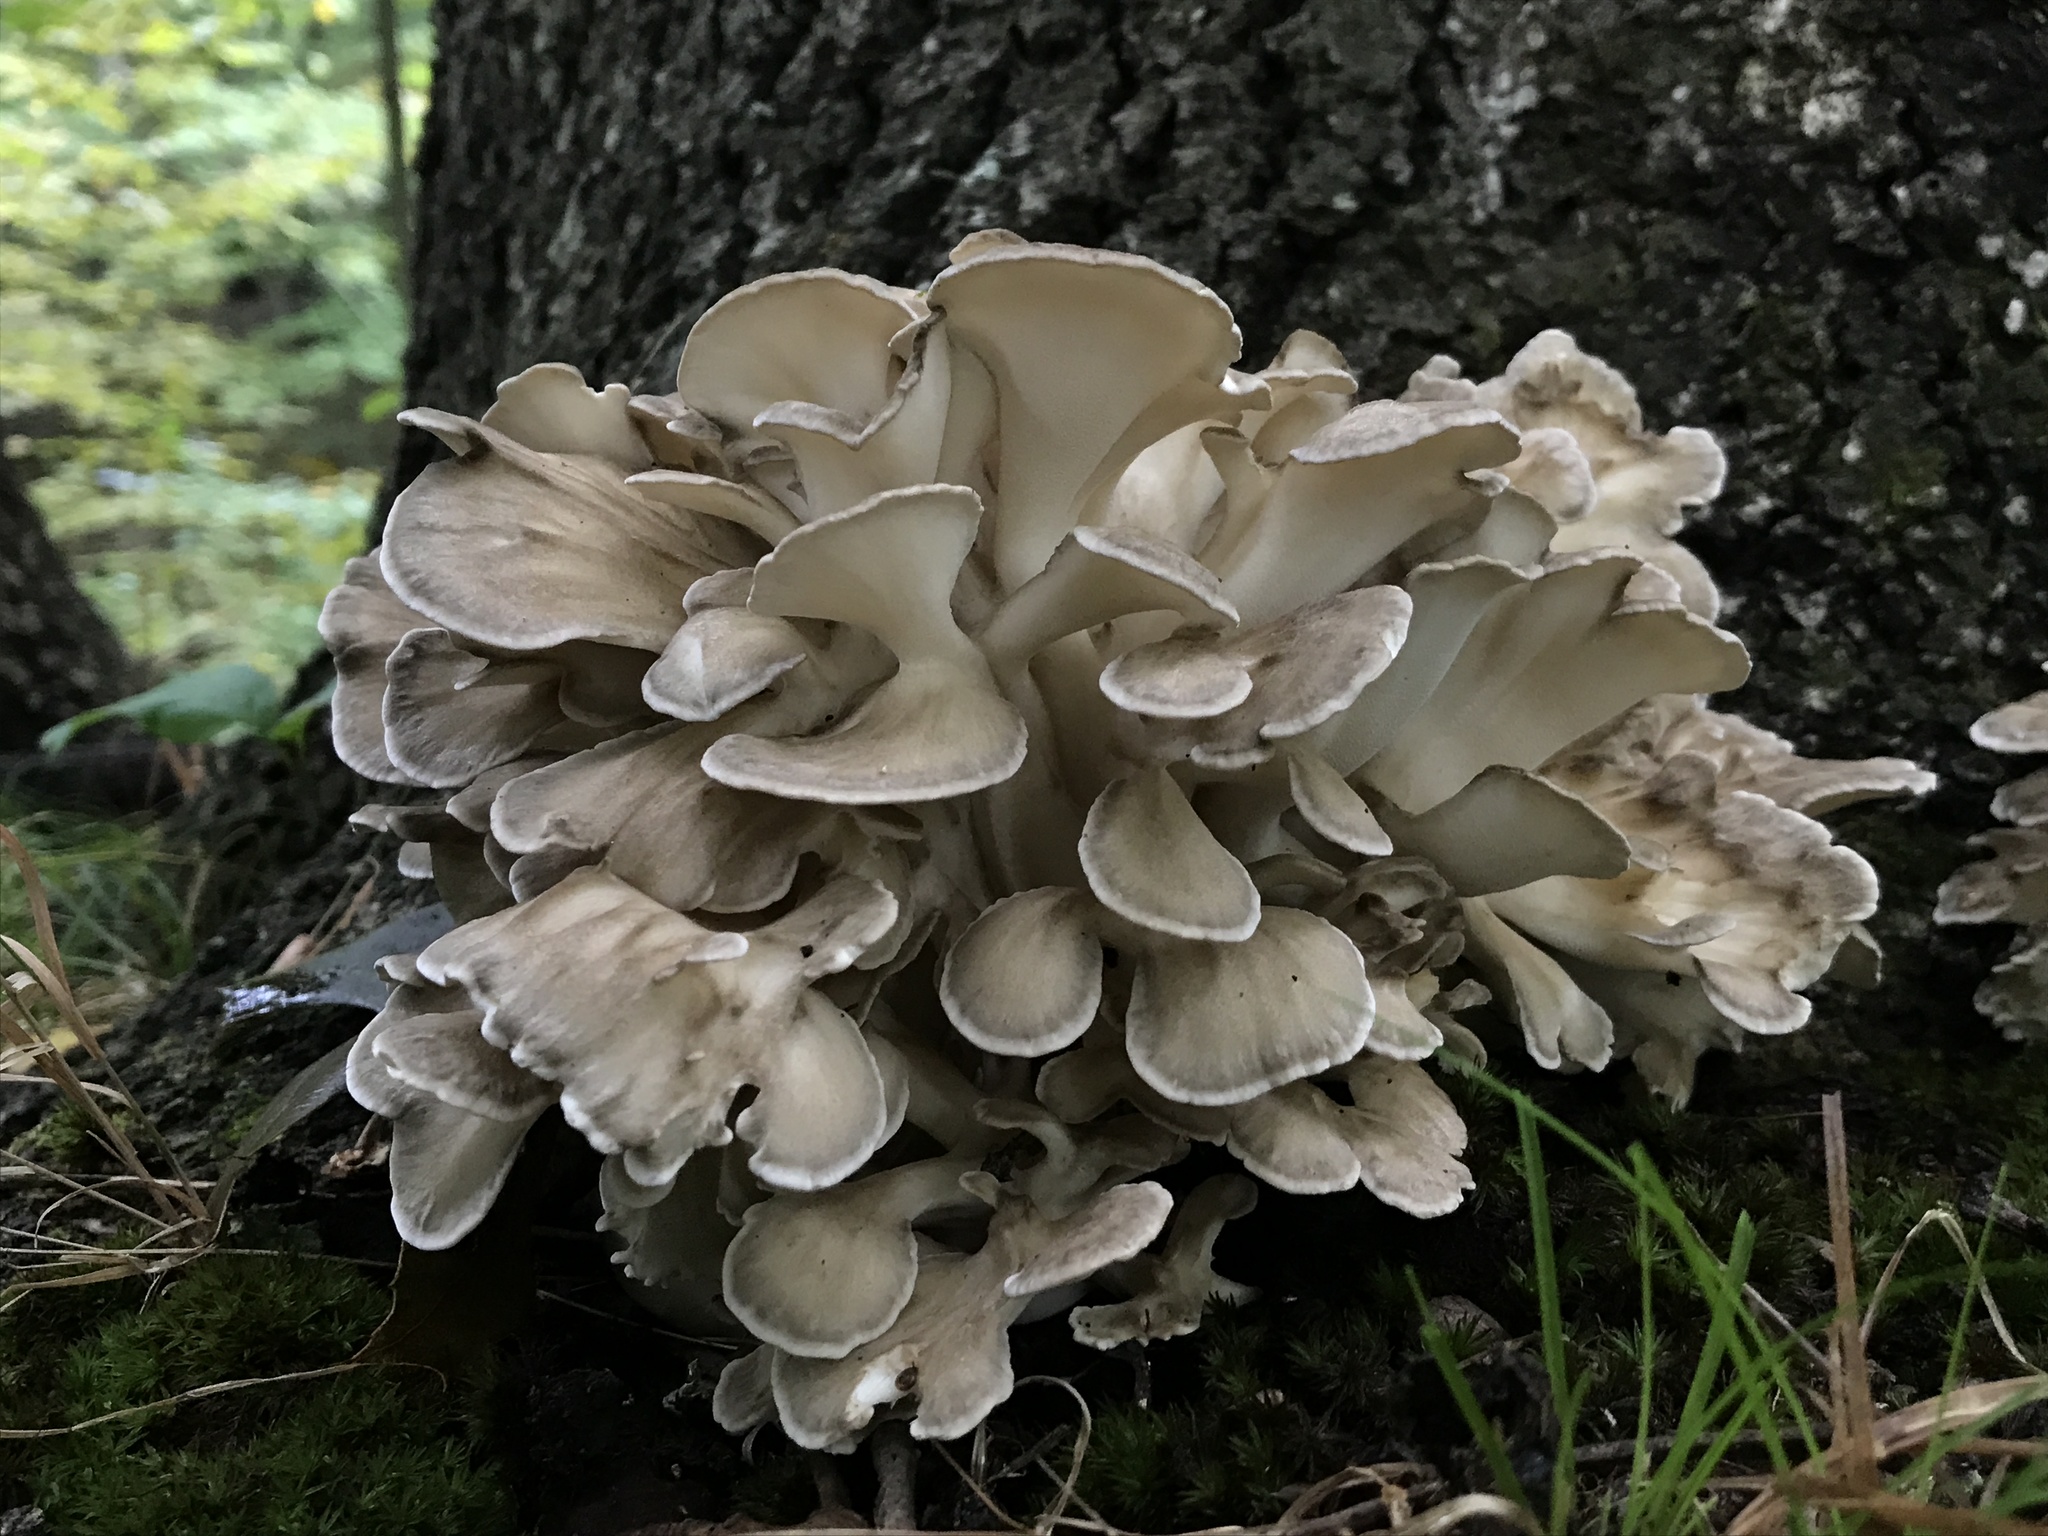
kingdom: Fungi
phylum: Basidiomycota
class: Agaricomycetes
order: Polyporales
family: Grifolaceae
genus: Grifola
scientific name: Grifola frondosa
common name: Hen of the woods
